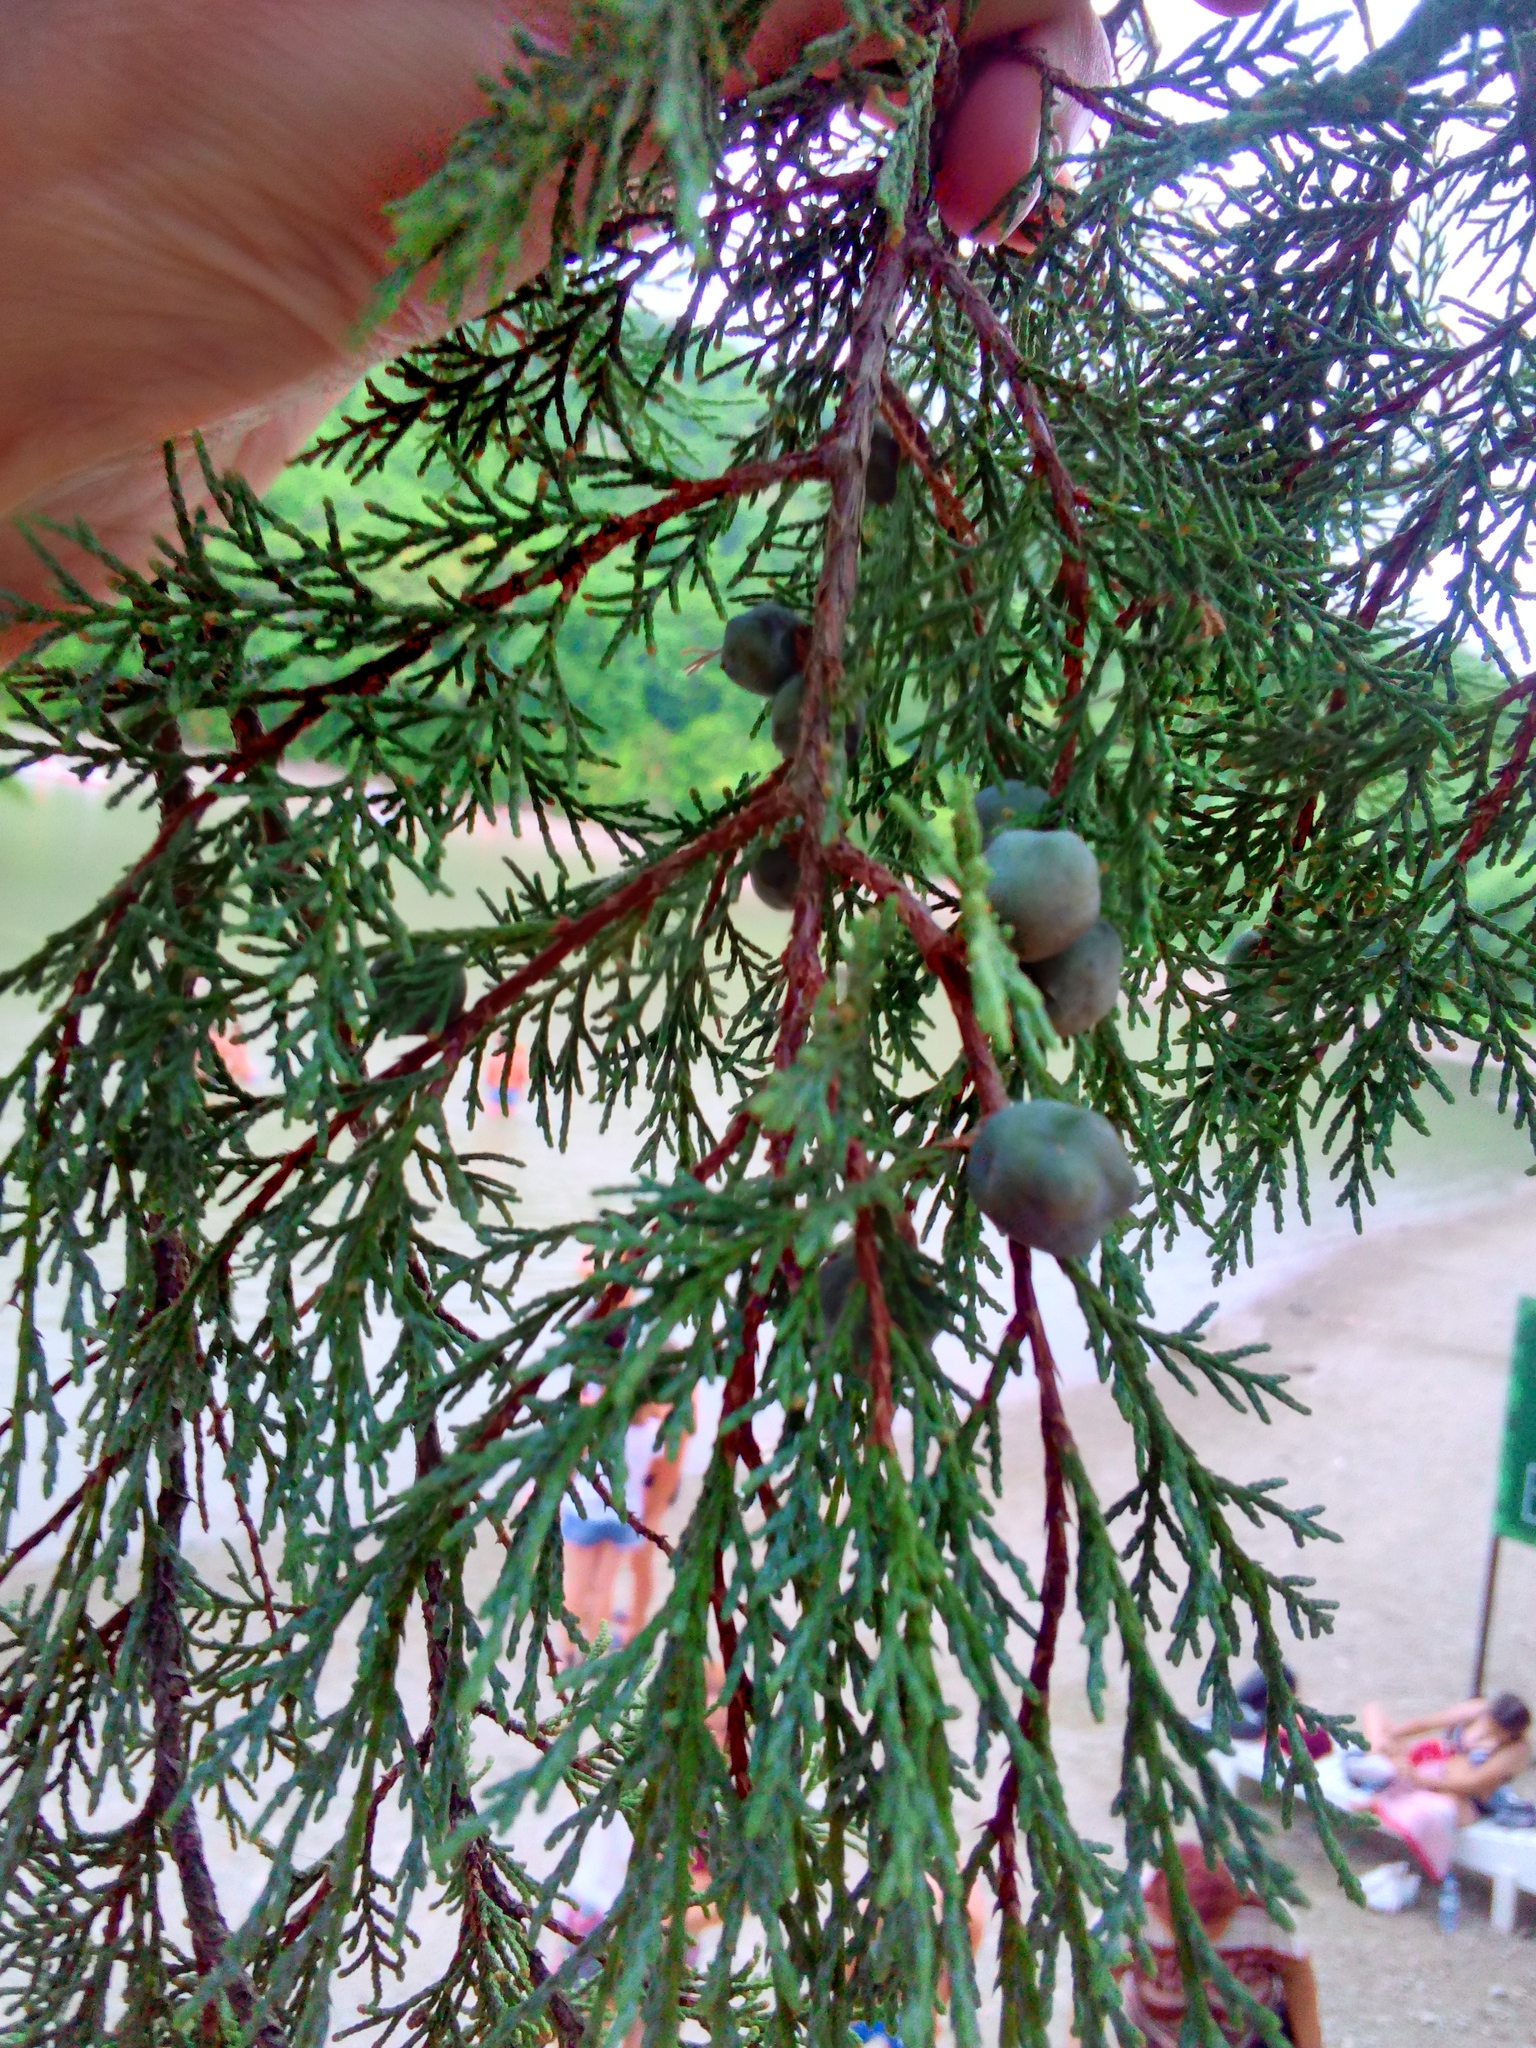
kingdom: Plantae
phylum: Tracheophyta
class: Pinopsida
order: Pinales
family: Cupressaceae
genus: Juniperus
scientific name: Juniperus excelsa
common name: Crimean juniper
